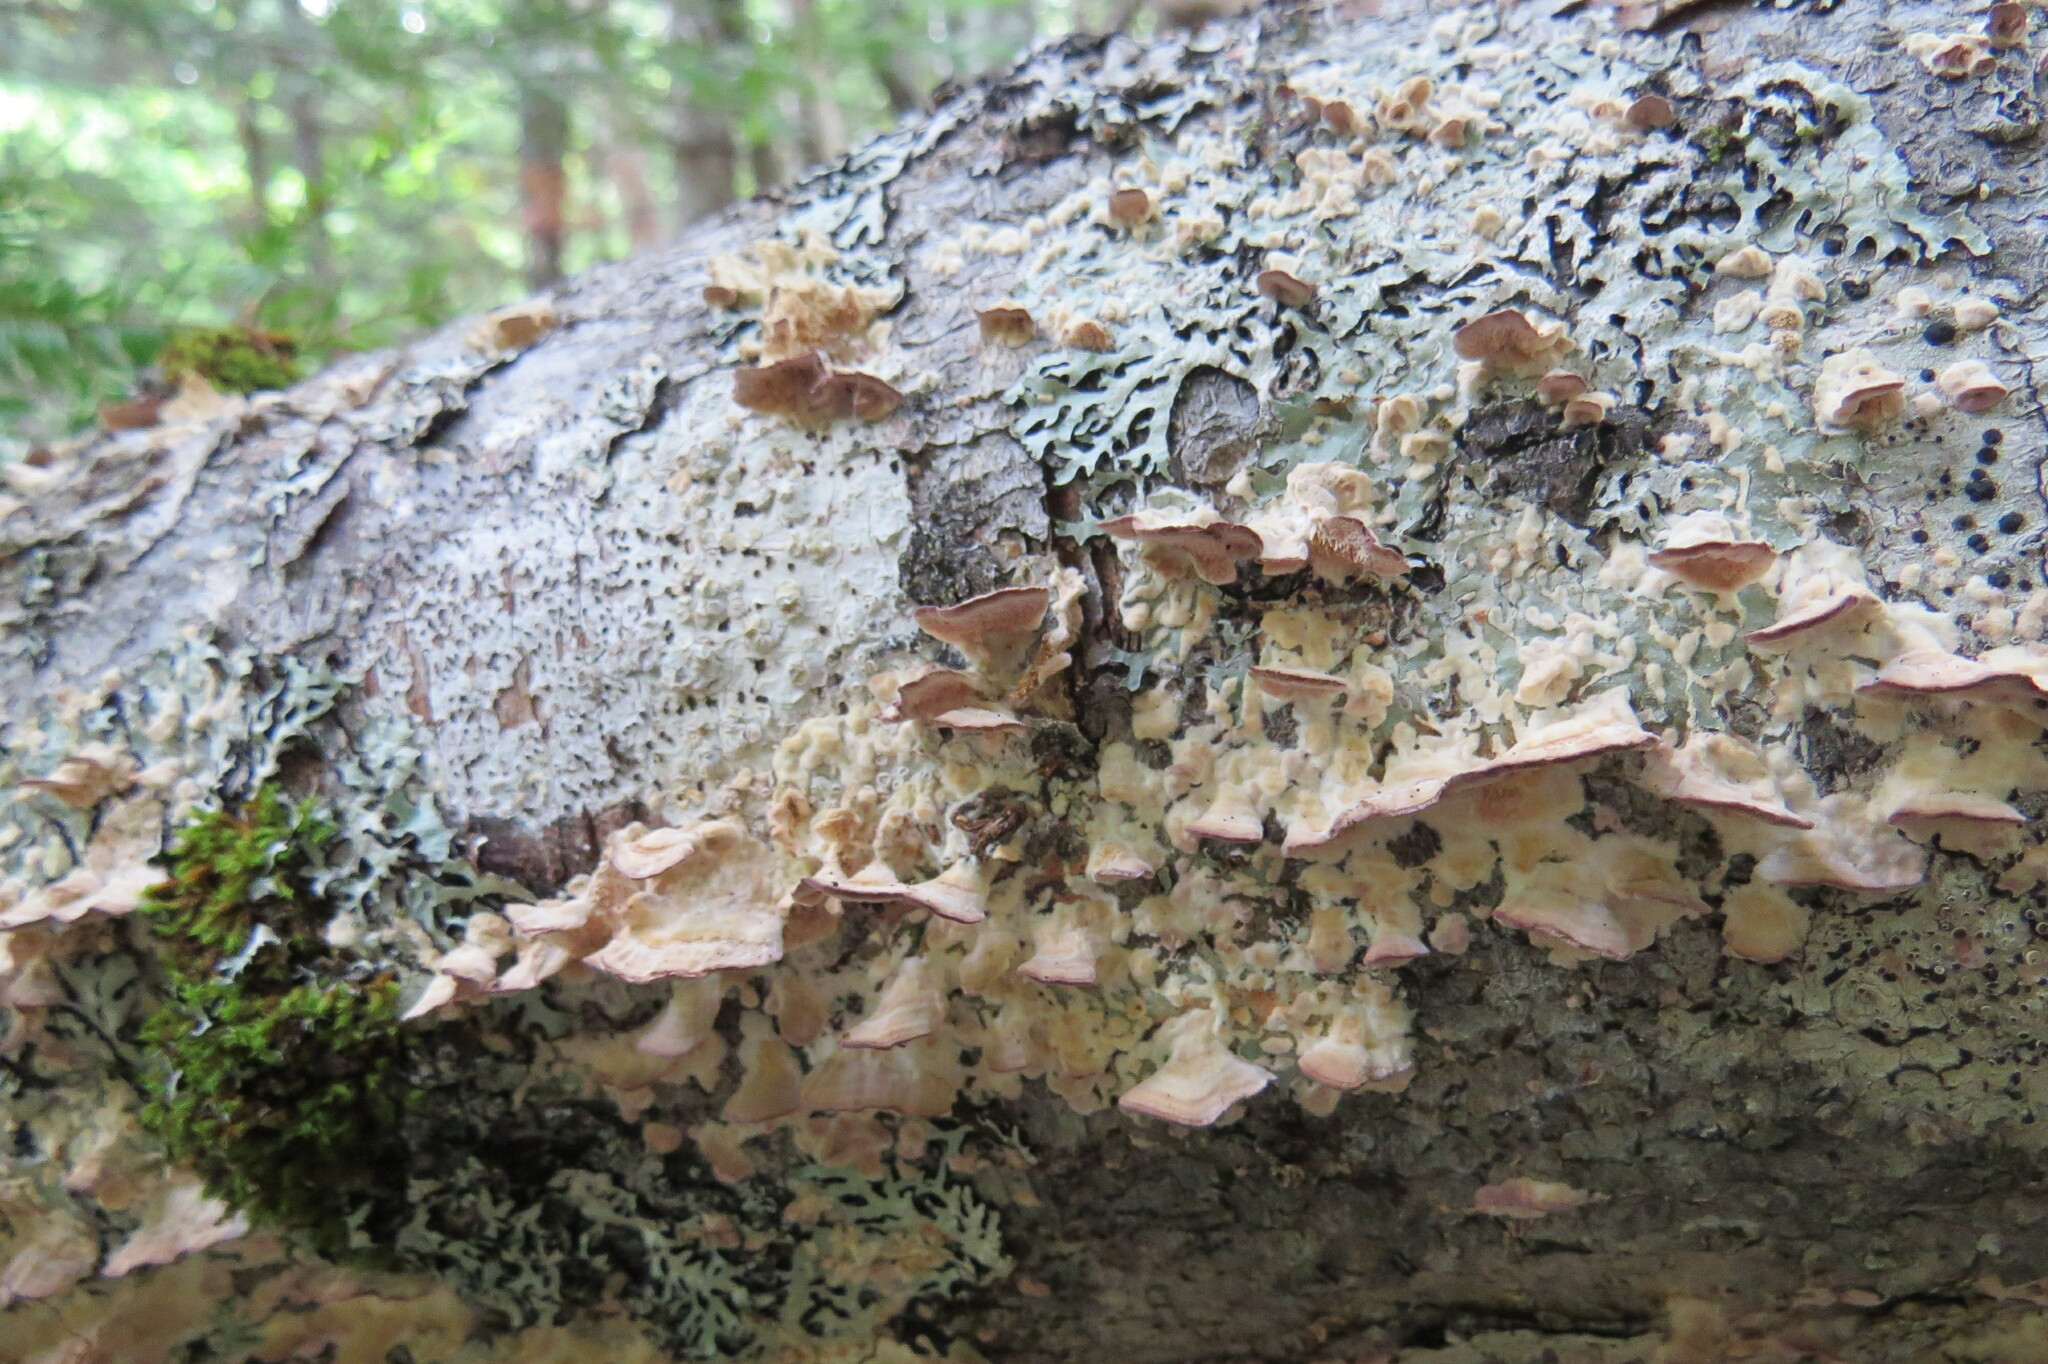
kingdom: Fungi
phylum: Basidiomycota
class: Agaricomycetes
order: Hymenochaetales
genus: Trichaptum
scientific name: Trichaptum abietinum
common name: Purplepore bracket
